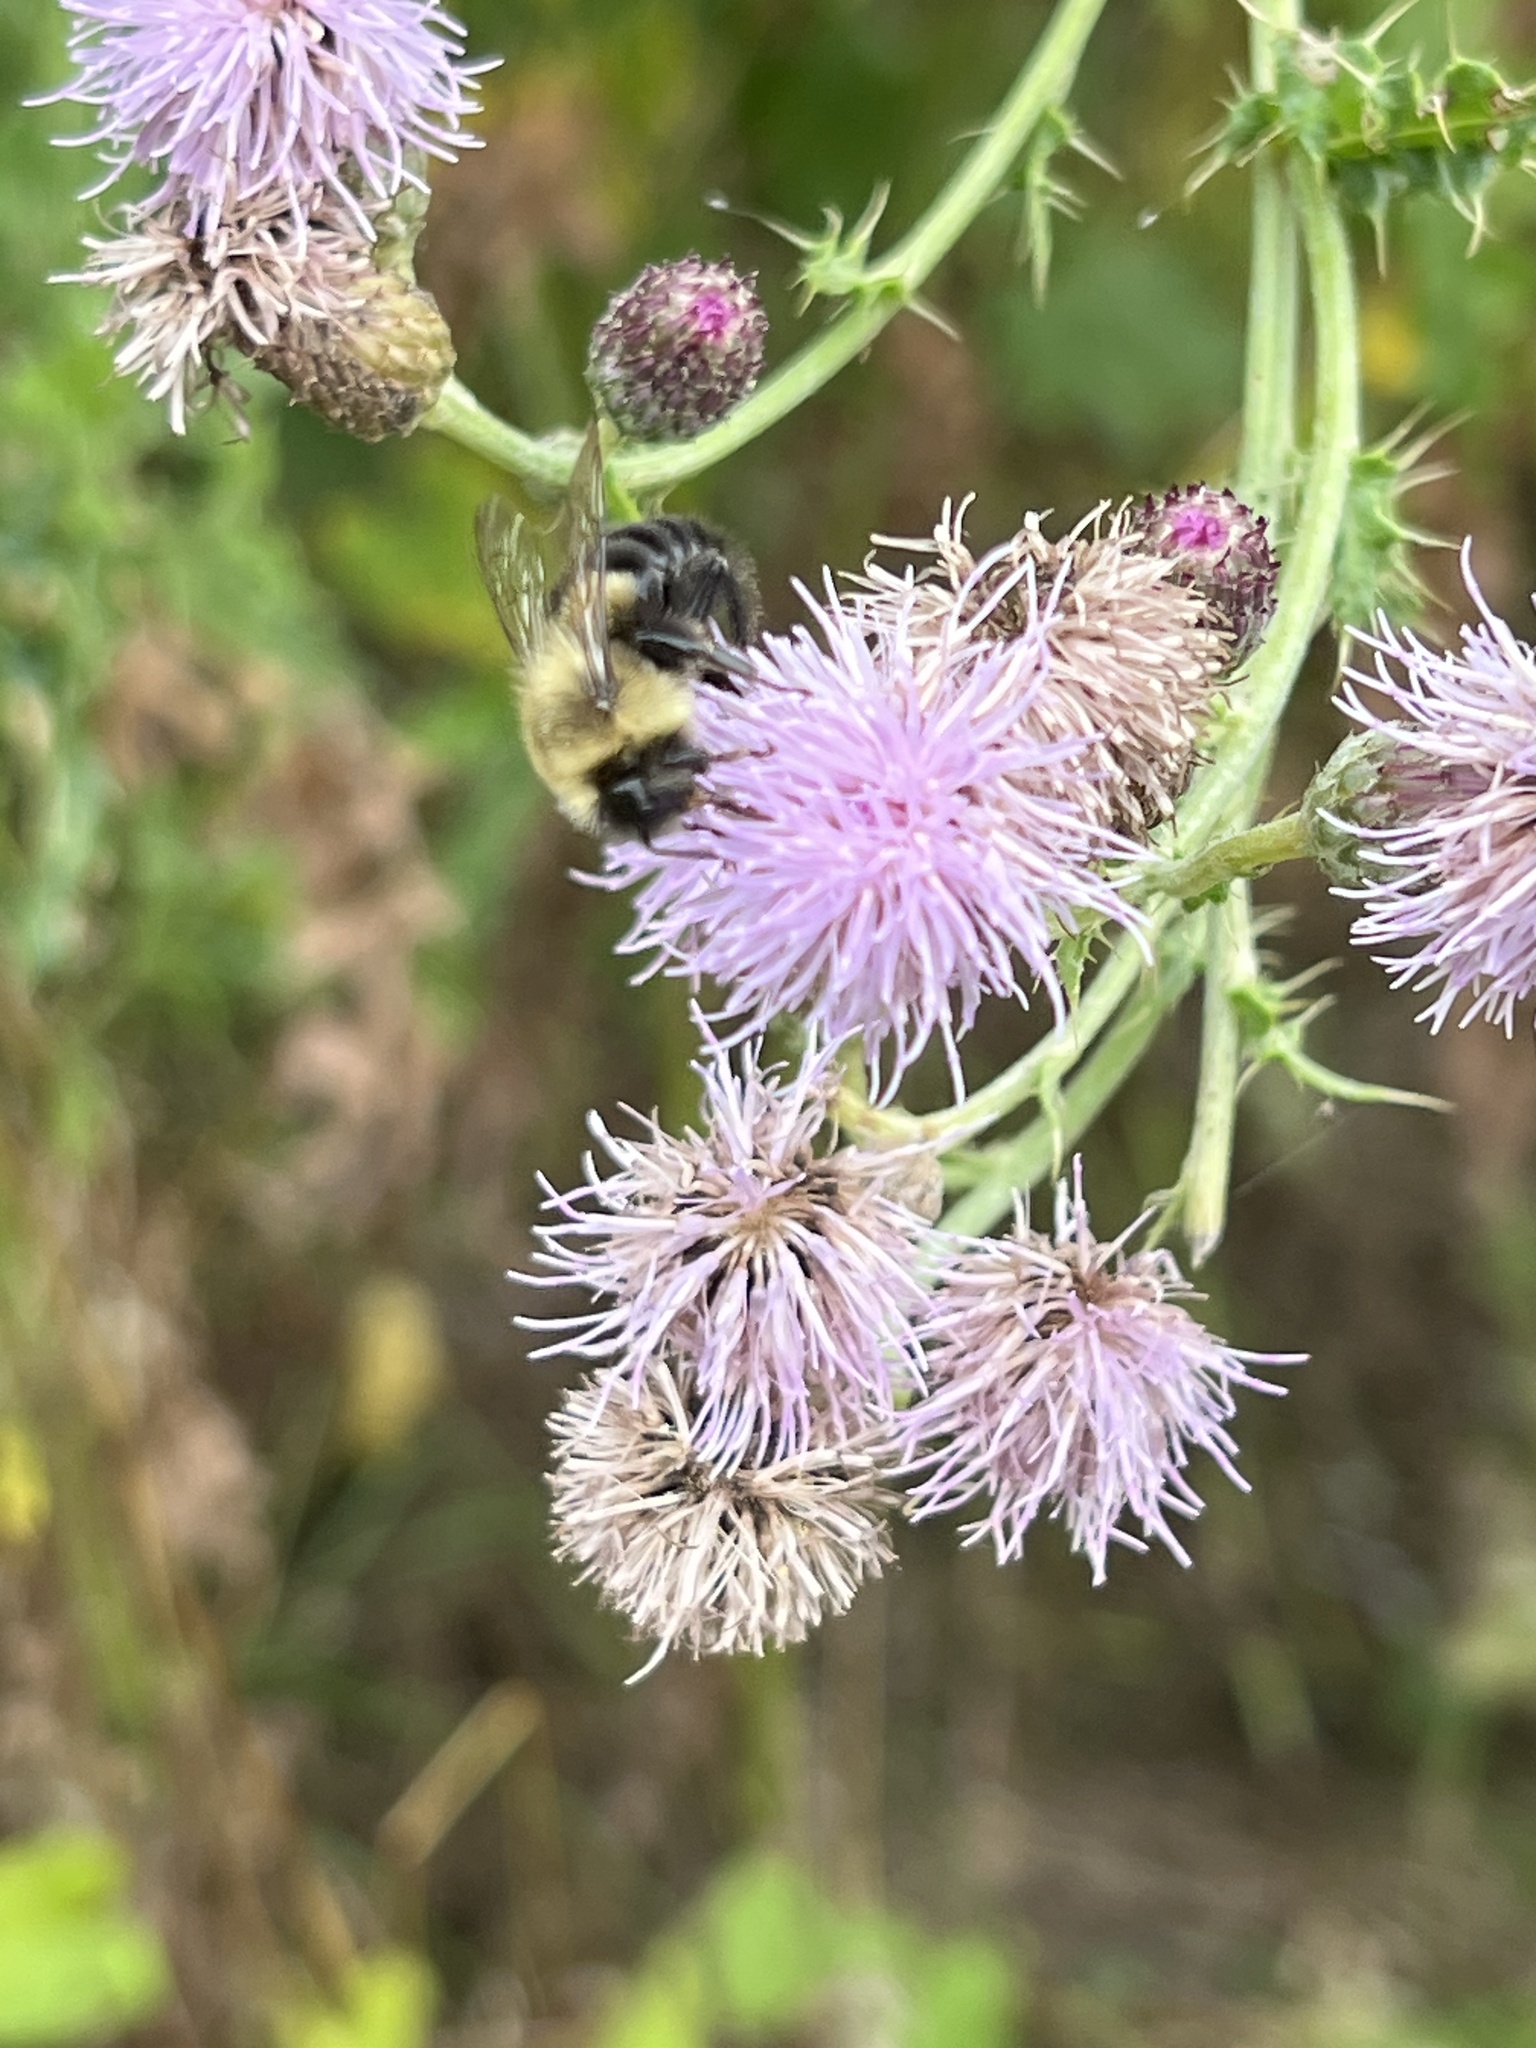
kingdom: Animalia
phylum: Arthropoda
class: Insecta
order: Hymenoptera
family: Apidae
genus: Bombus
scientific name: Bombus impatiens
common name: Common eastern bumble bee
